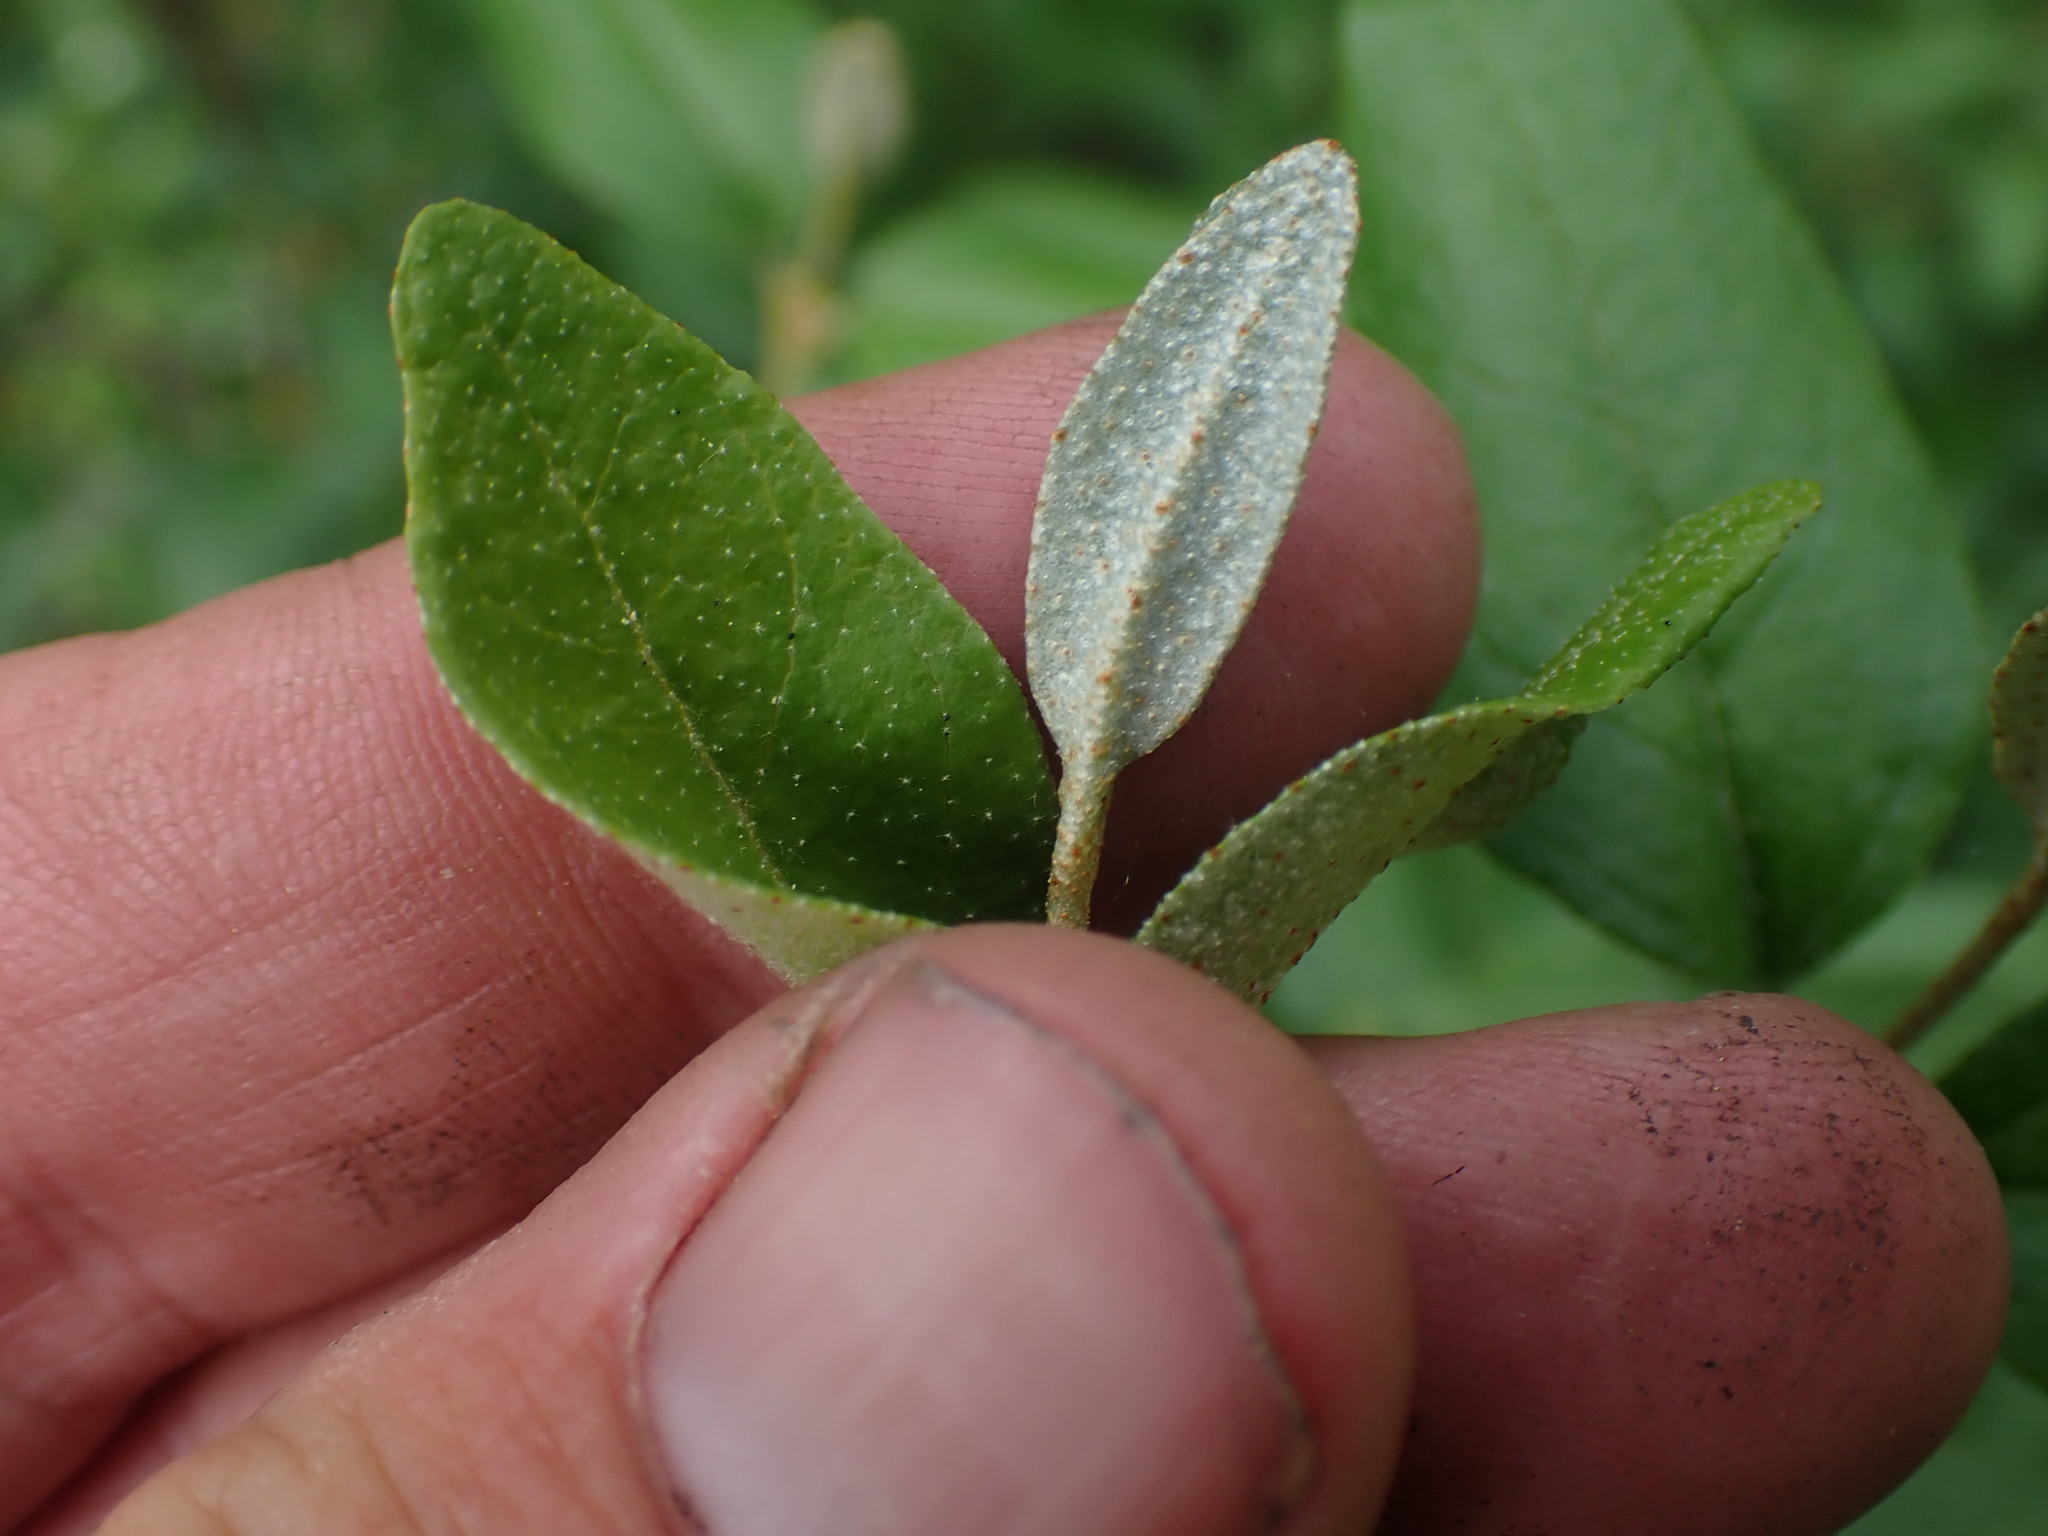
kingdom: Plantae
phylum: Tracheophyta
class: Magnoliopsida
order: Rosales
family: Elaeagnaceae
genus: Shepherdia
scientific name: Shepherdia canadensis
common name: Soapberry
